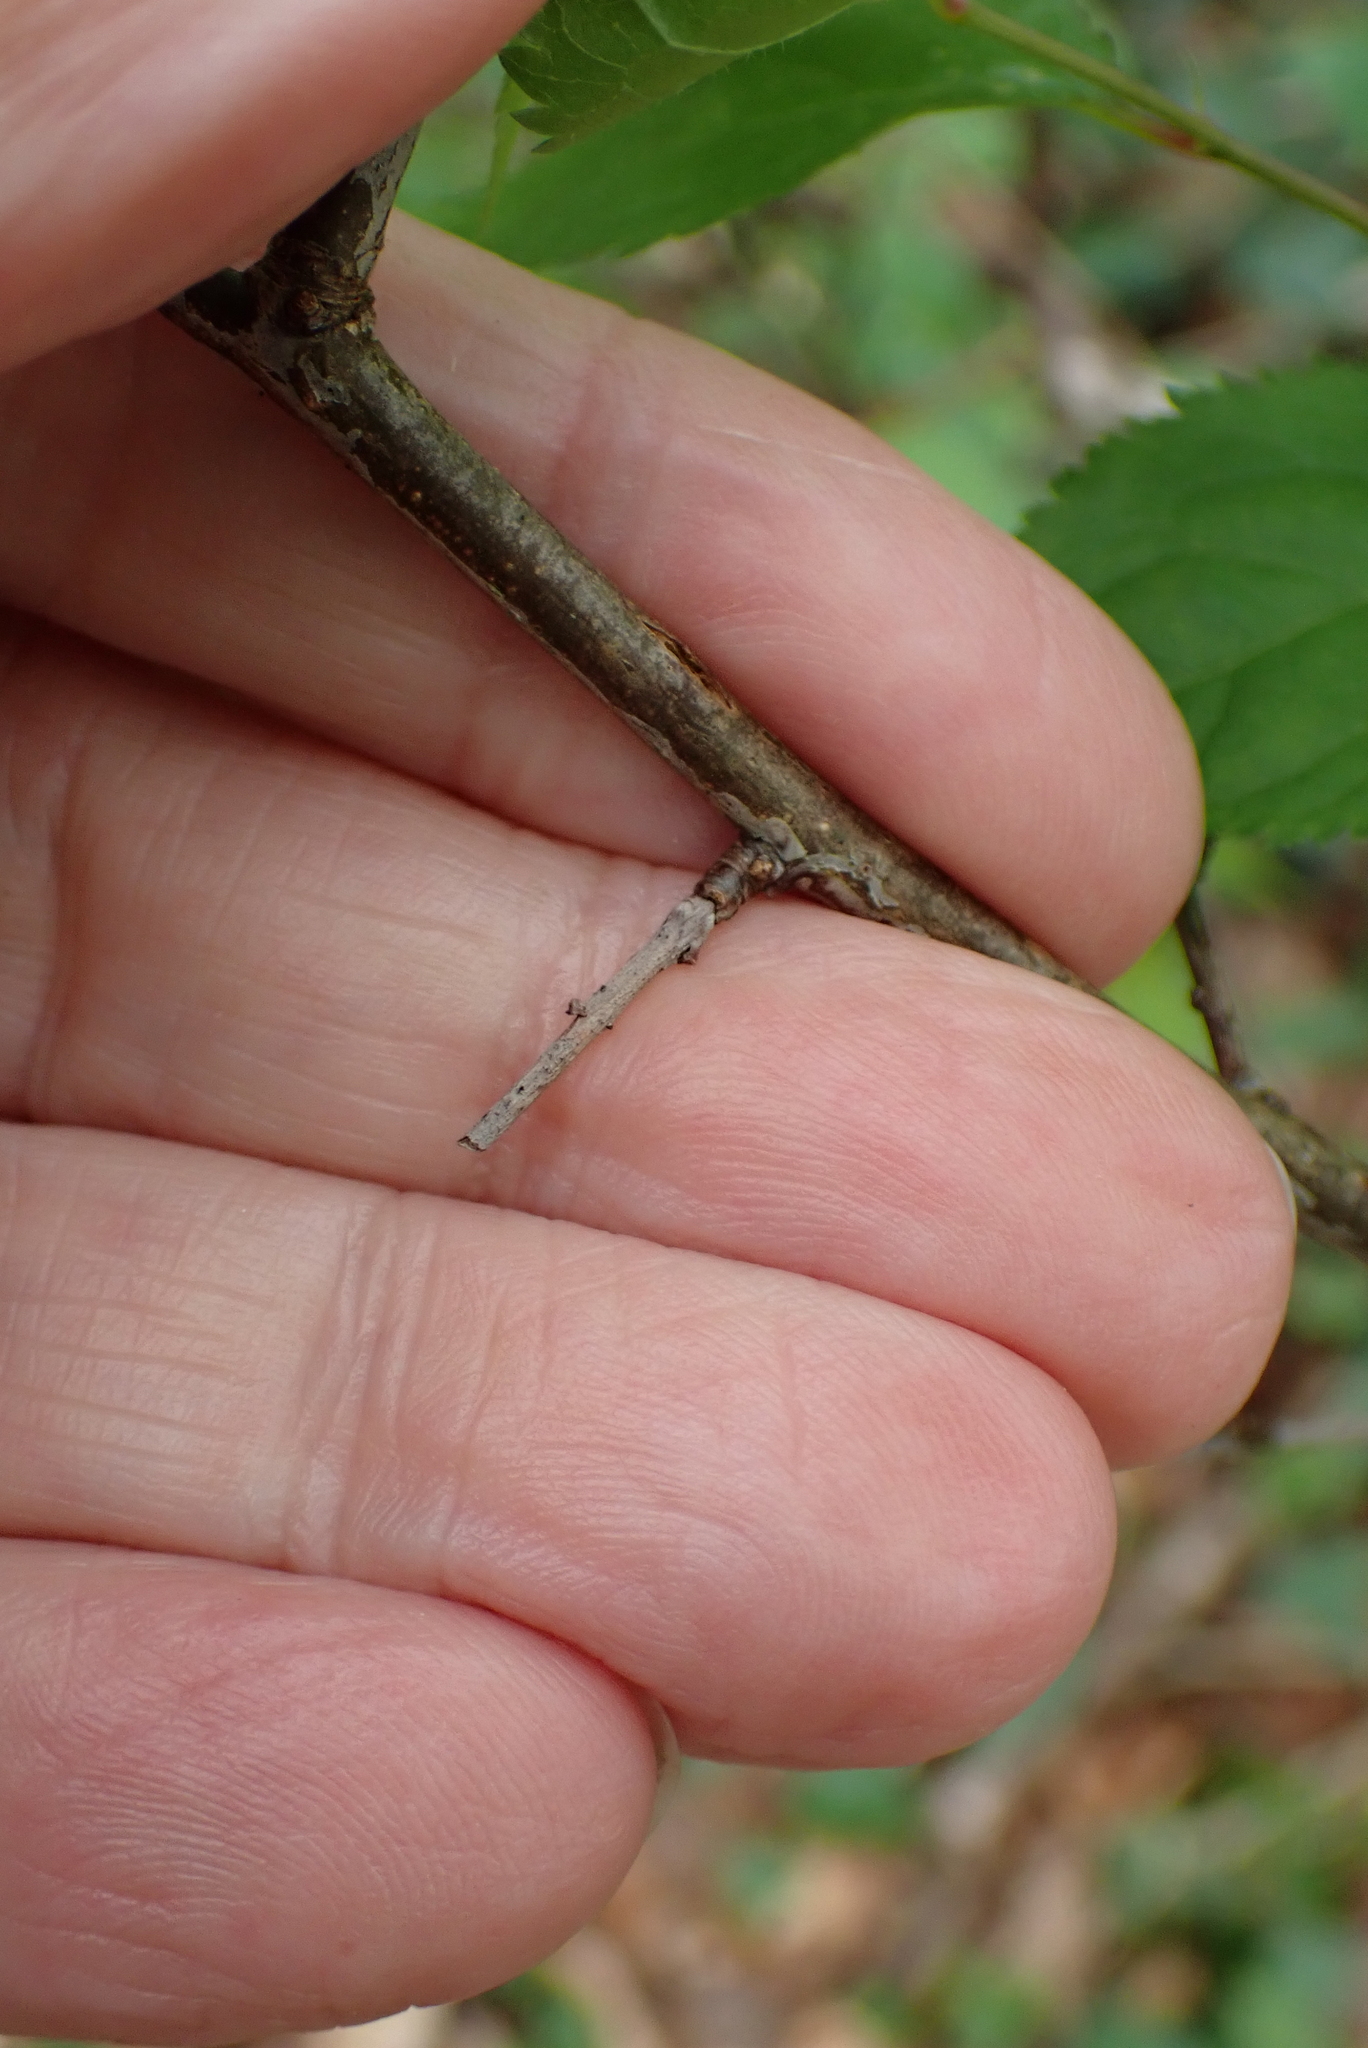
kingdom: Plantae
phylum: Tracheophyta
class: Magnoliopsida
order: Rosales
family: Rosaceae
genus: Prunus
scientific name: Prunus spinosa
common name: Blackthorn
